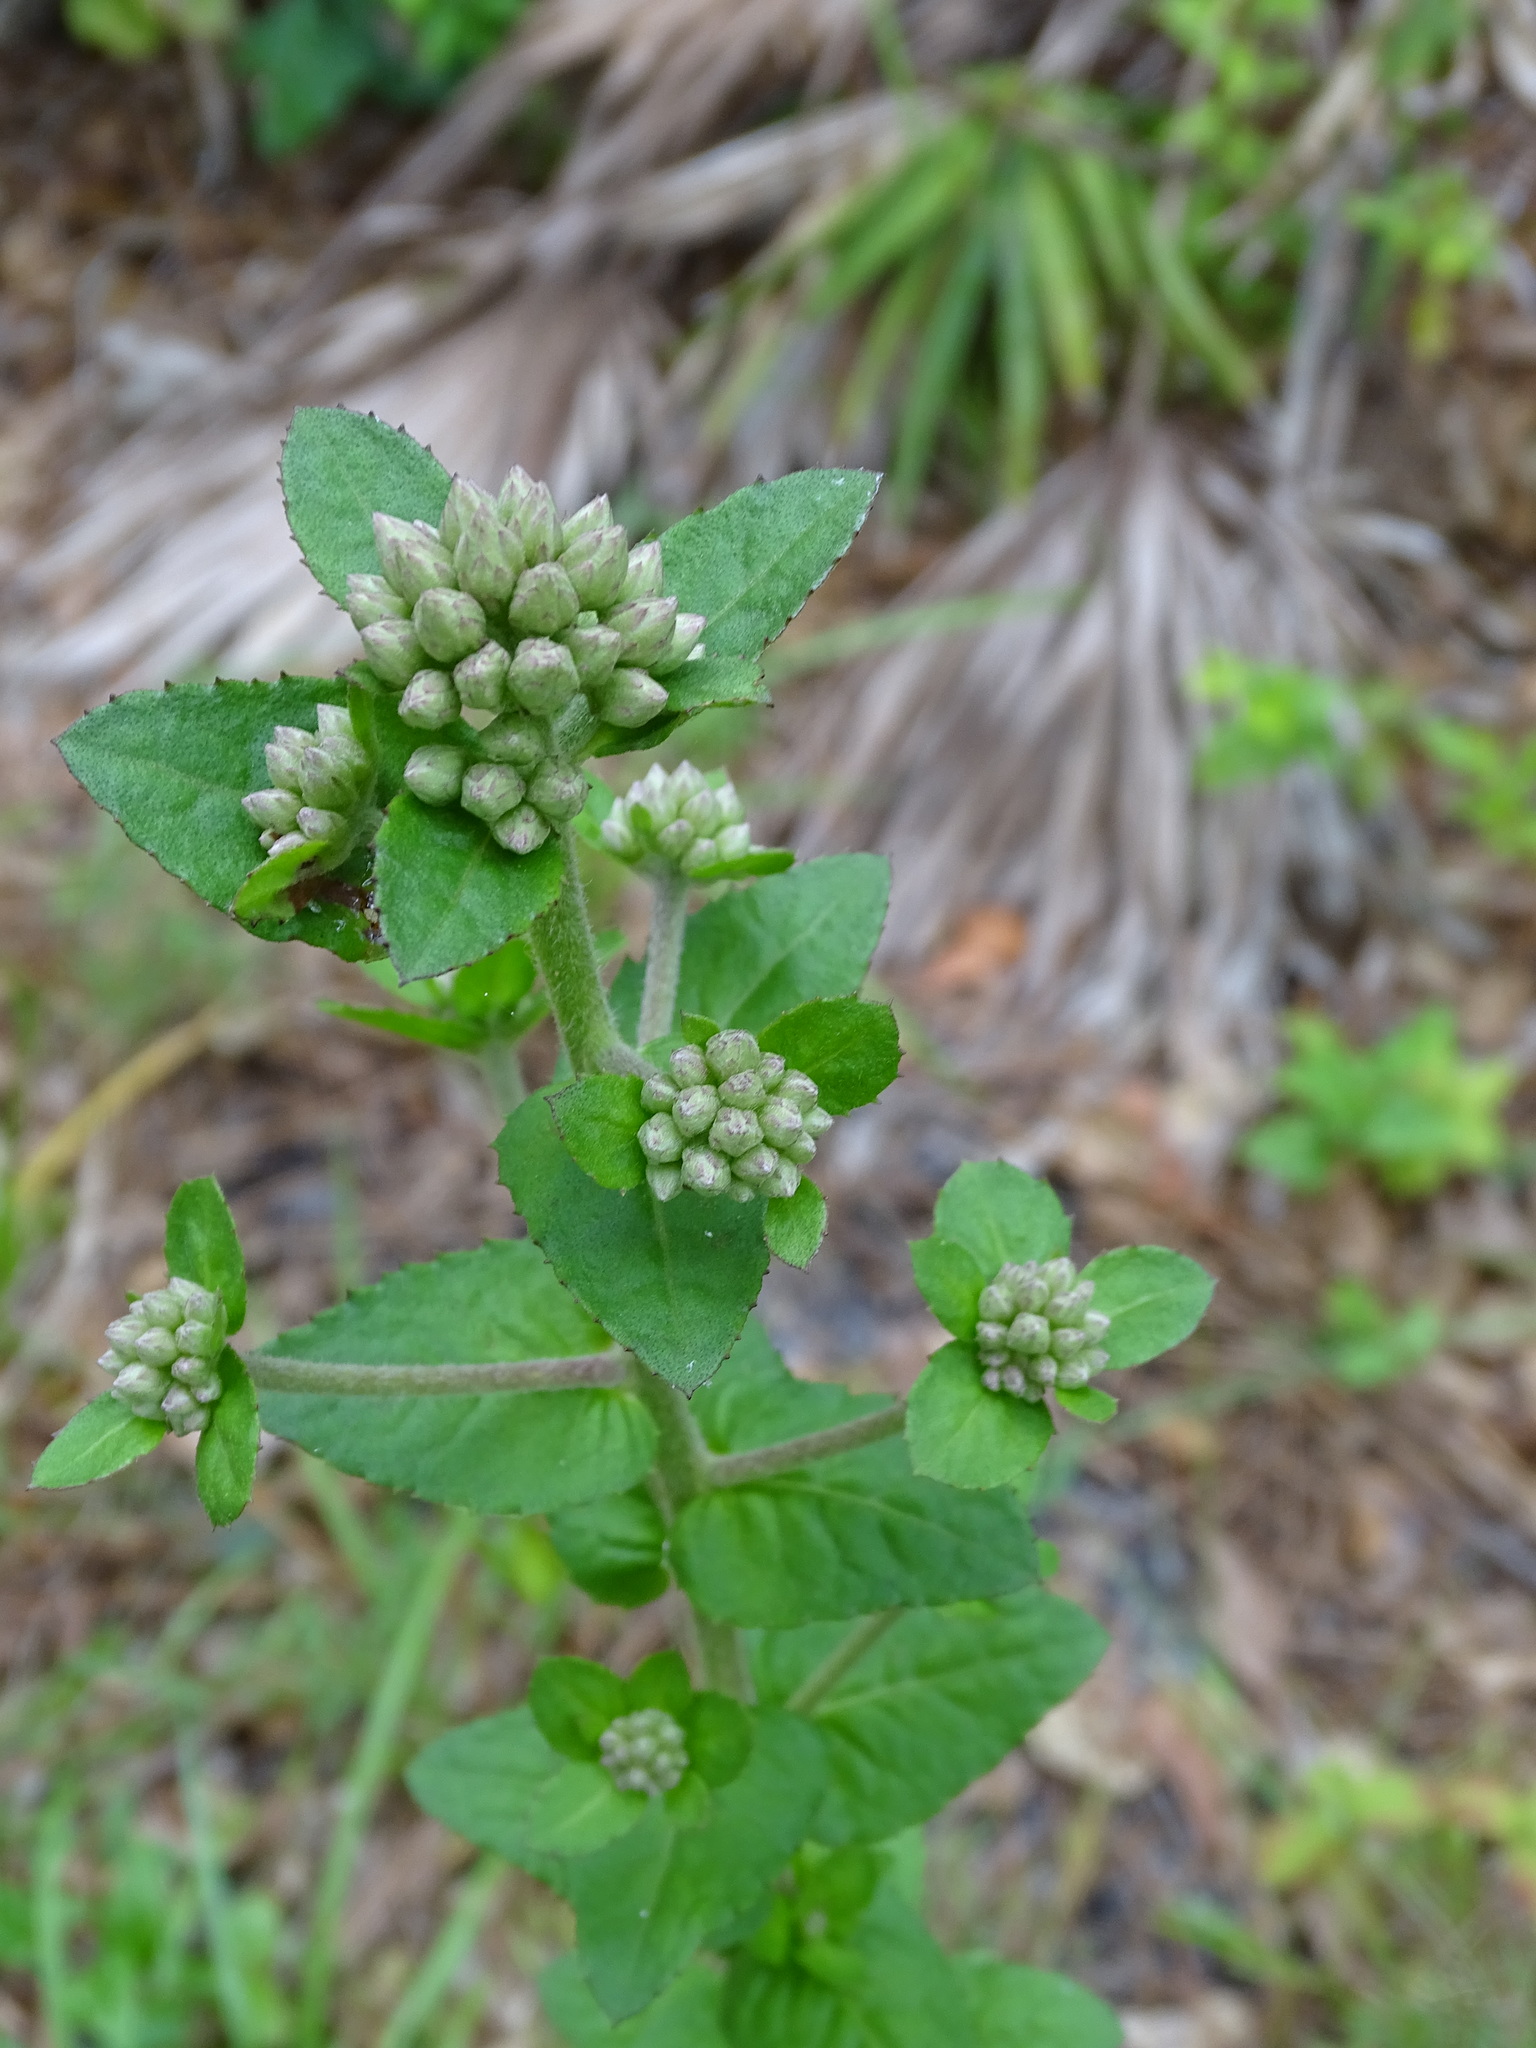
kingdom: Plantae
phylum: Tracheophyta
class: Magnoliopsida
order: Asterales
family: Asteraceae
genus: Pluchea
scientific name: Pluchea foetida
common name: Stinking camphorweed
